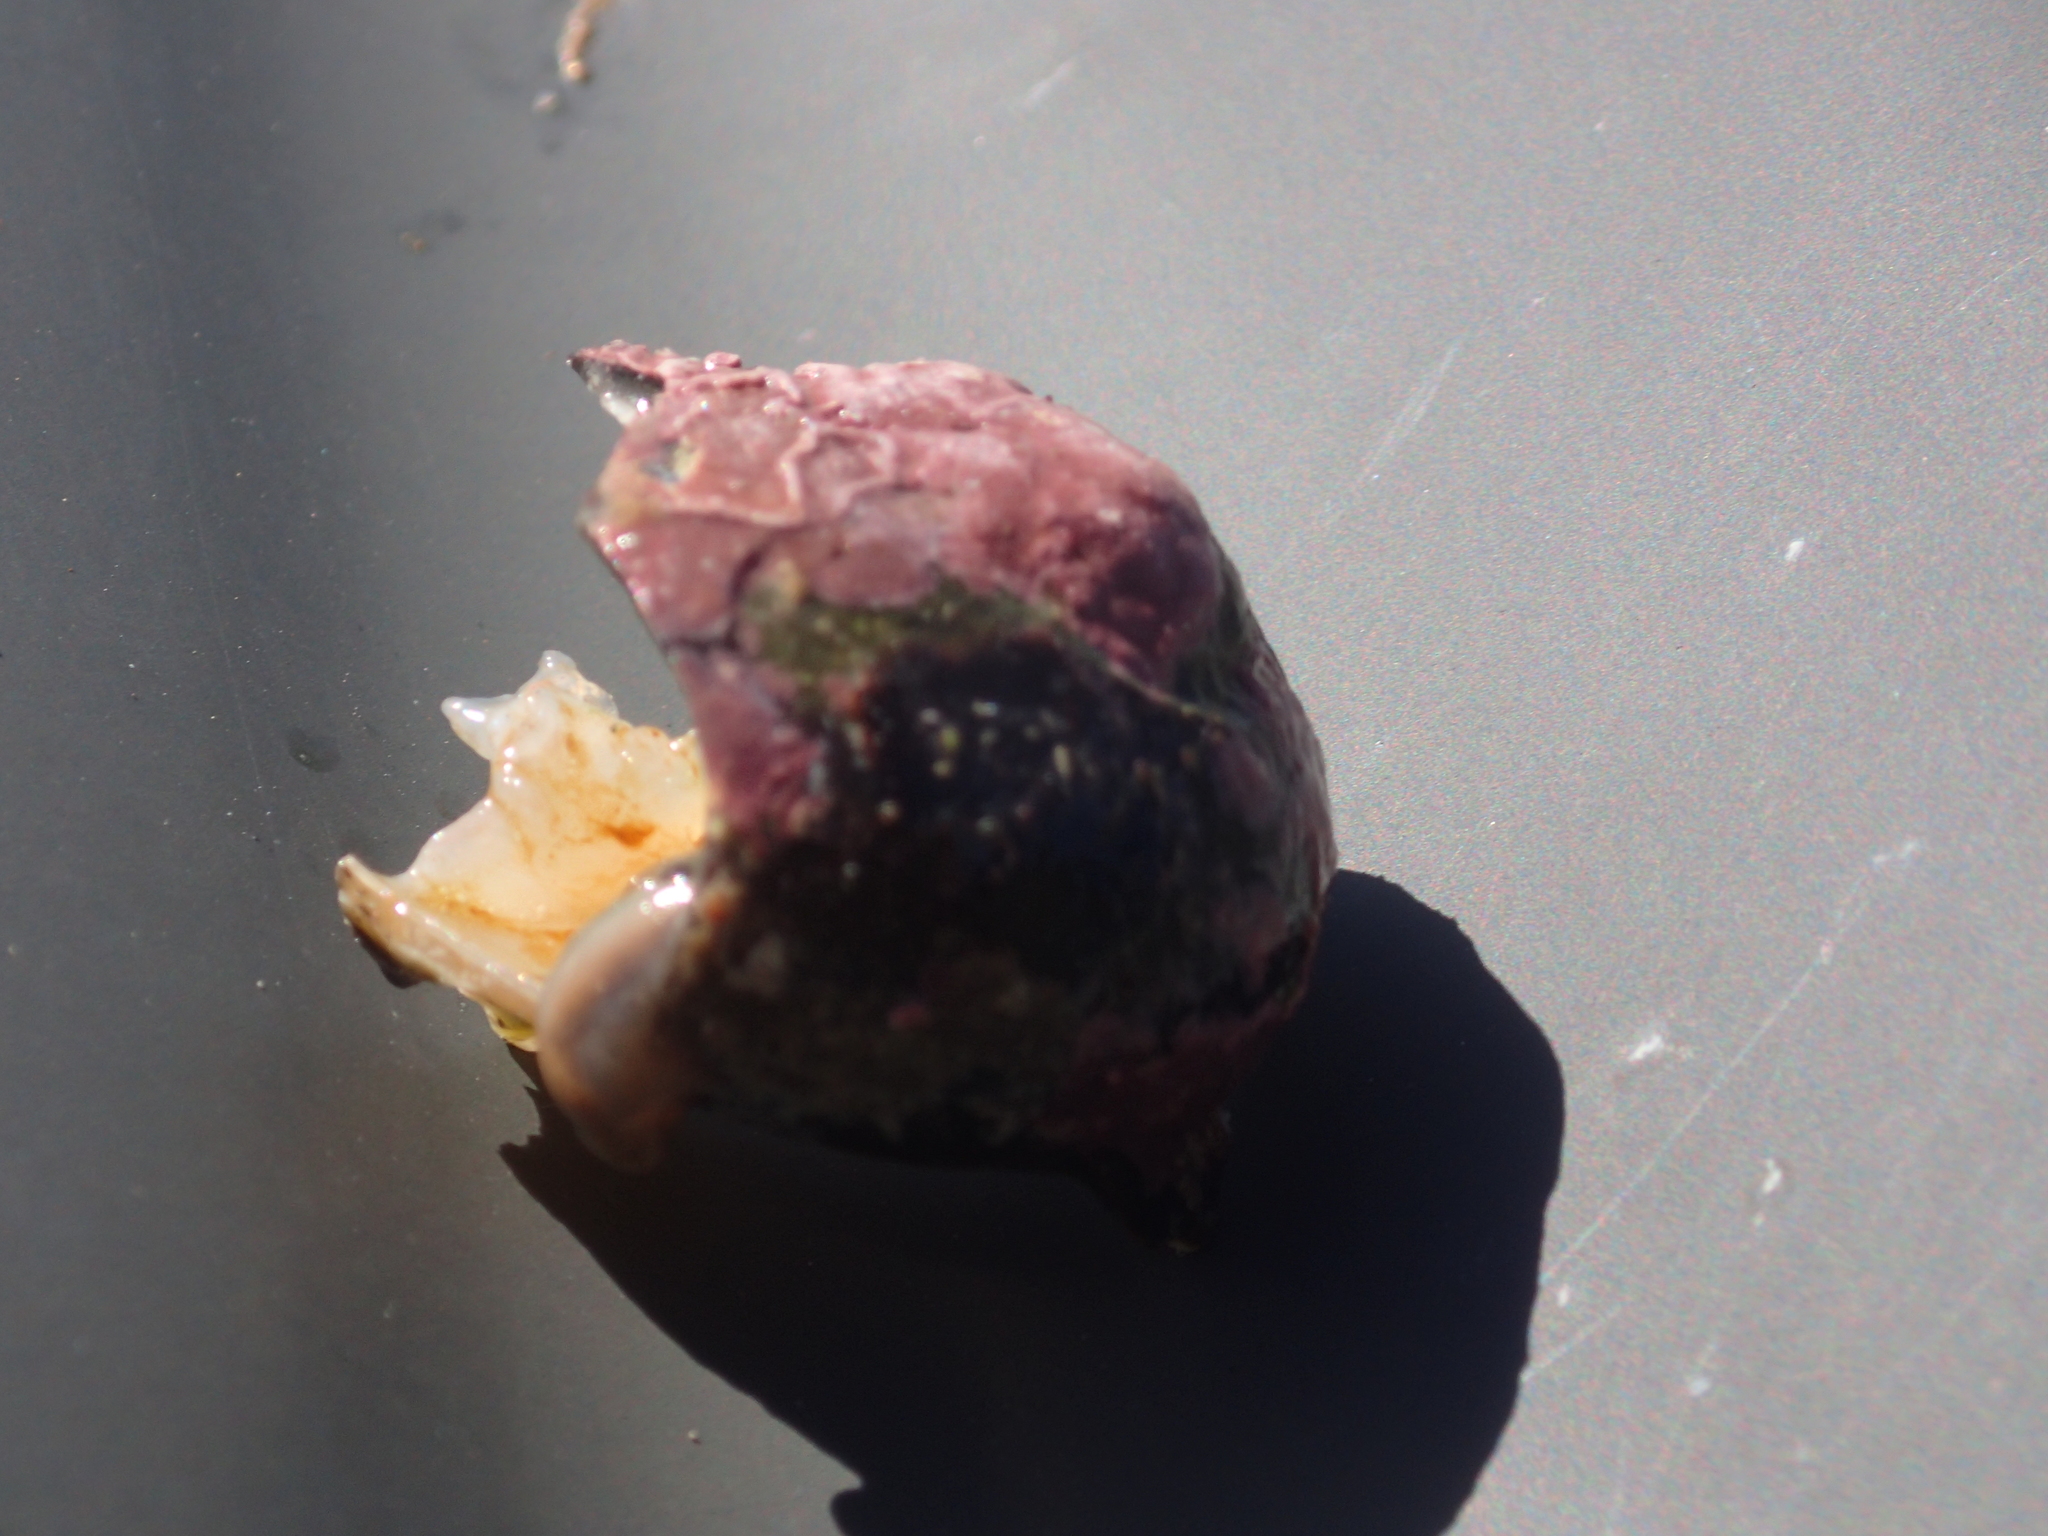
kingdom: Animalia
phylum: Mollusca
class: Gastropoda
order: Trochida
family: Turbinidae
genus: Lunella
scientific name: Lunella smaragda
